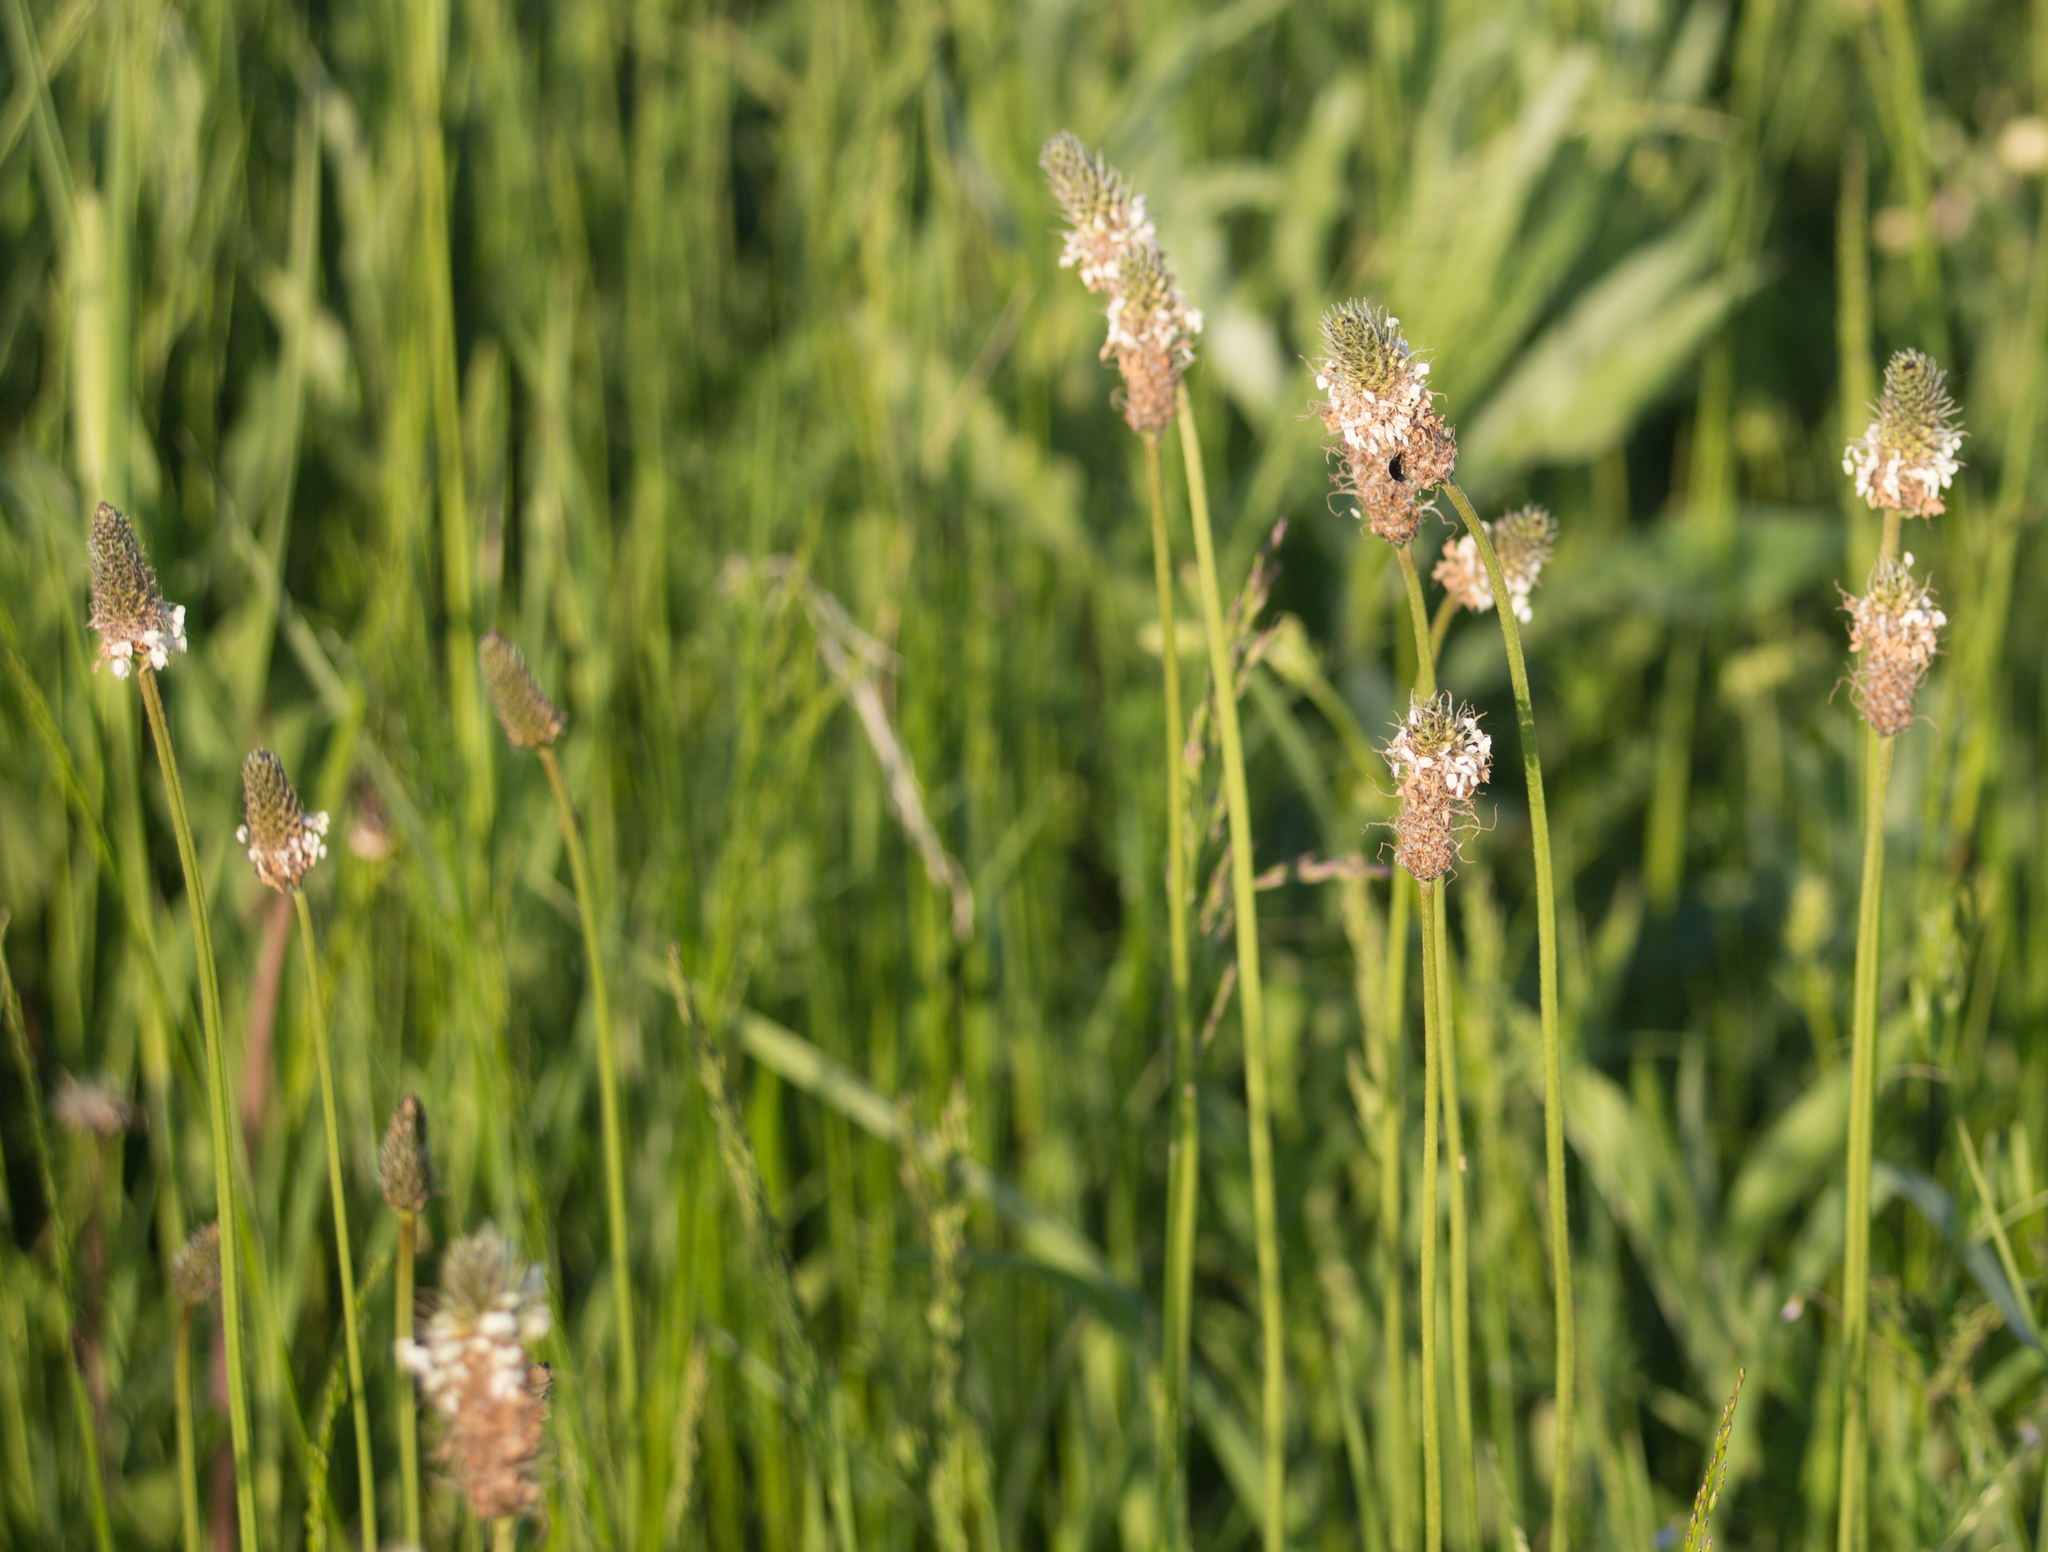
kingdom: Plantae
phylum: Tracheophyta
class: Magnoliopsida
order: Lamiales
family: Plantaginaceae
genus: Plantago
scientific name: Plantago lanceolata
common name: Ribwort plantain
